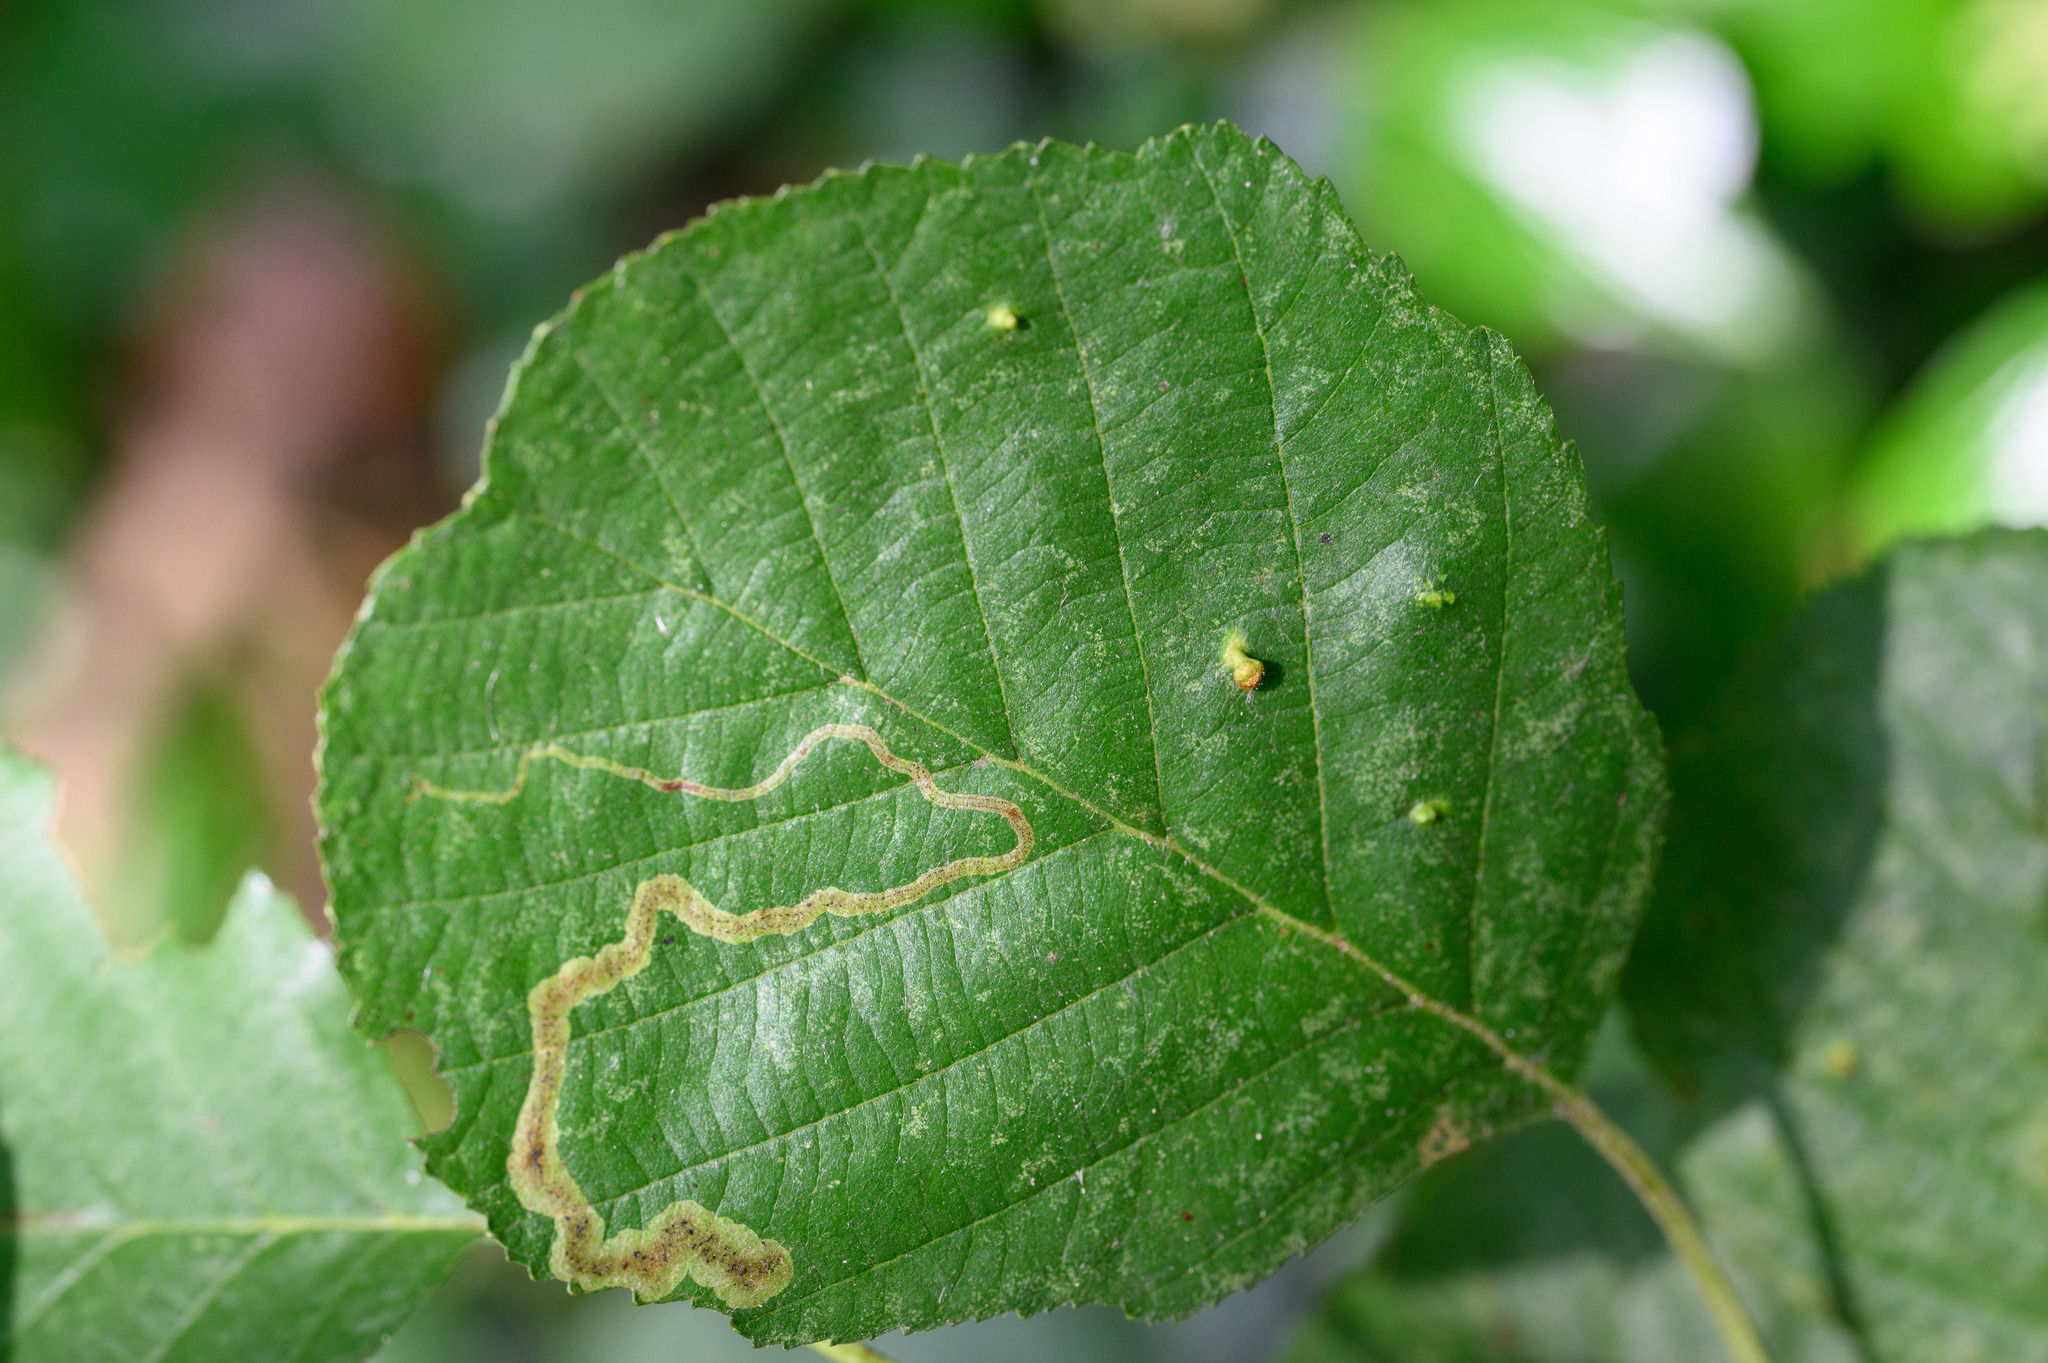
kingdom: Animalia
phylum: Arthropoda
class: Insecta
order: Diptera
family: Agromyzidae
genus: Agromyza
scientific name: Agromyza alnivora
